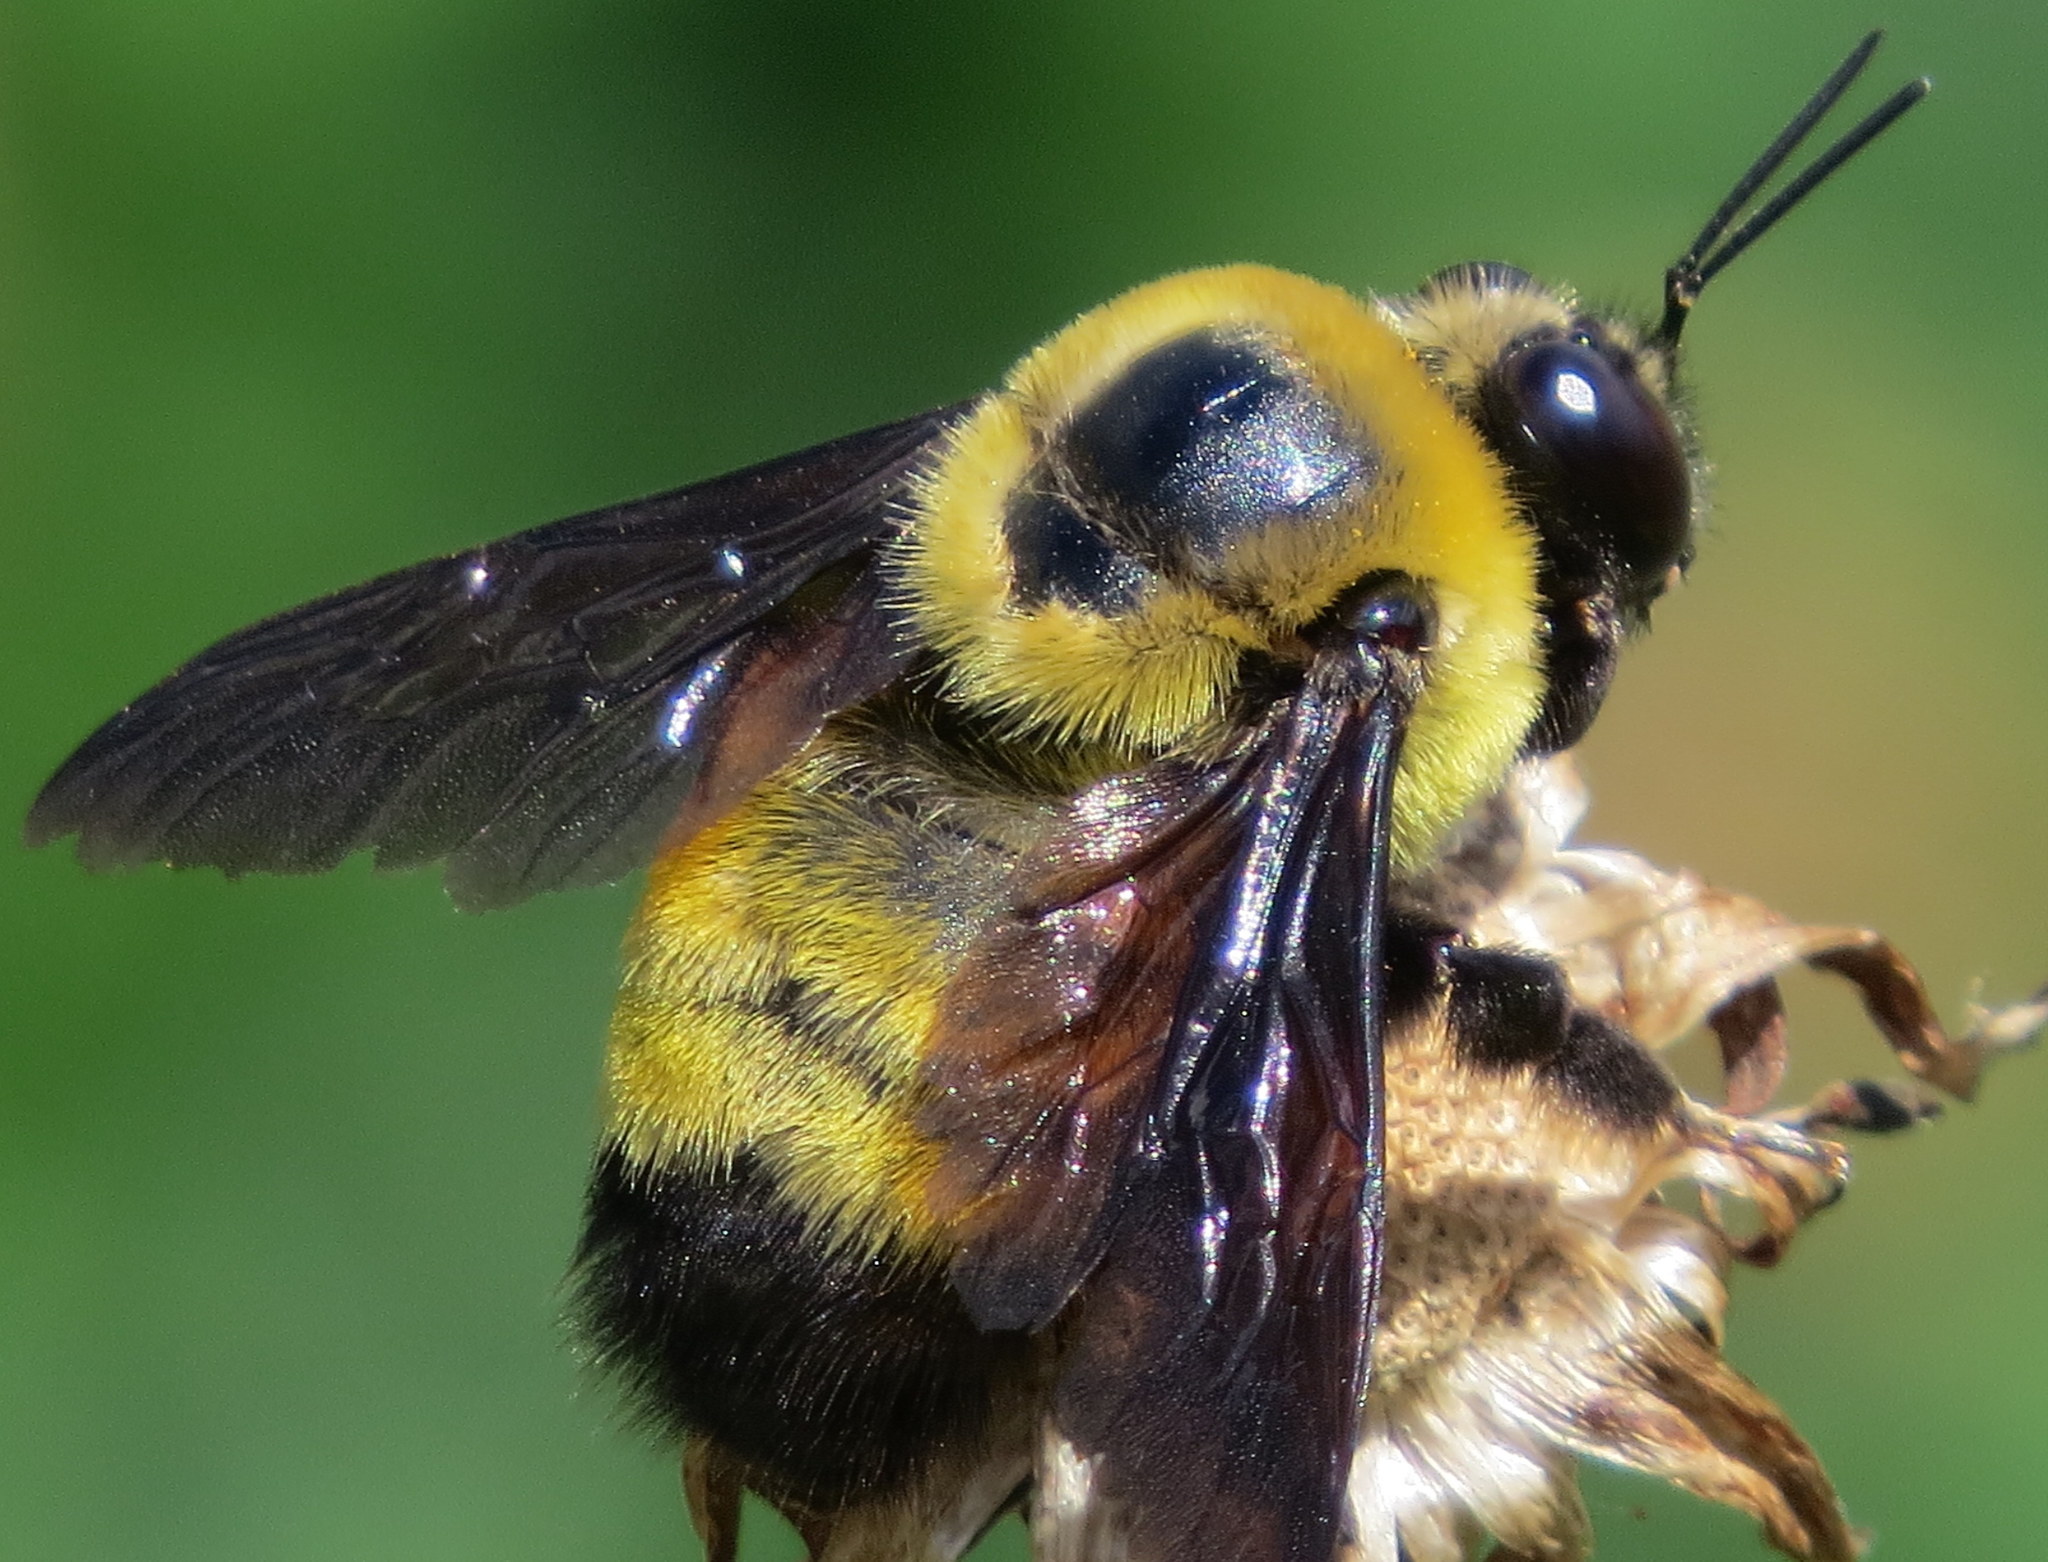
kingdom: Animalia
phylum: Arthropoda
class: Insecta
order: Hymenoptera
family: Apidae
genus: Bombus
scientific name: Bombus auricomus
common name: Black and gold bumble bee
